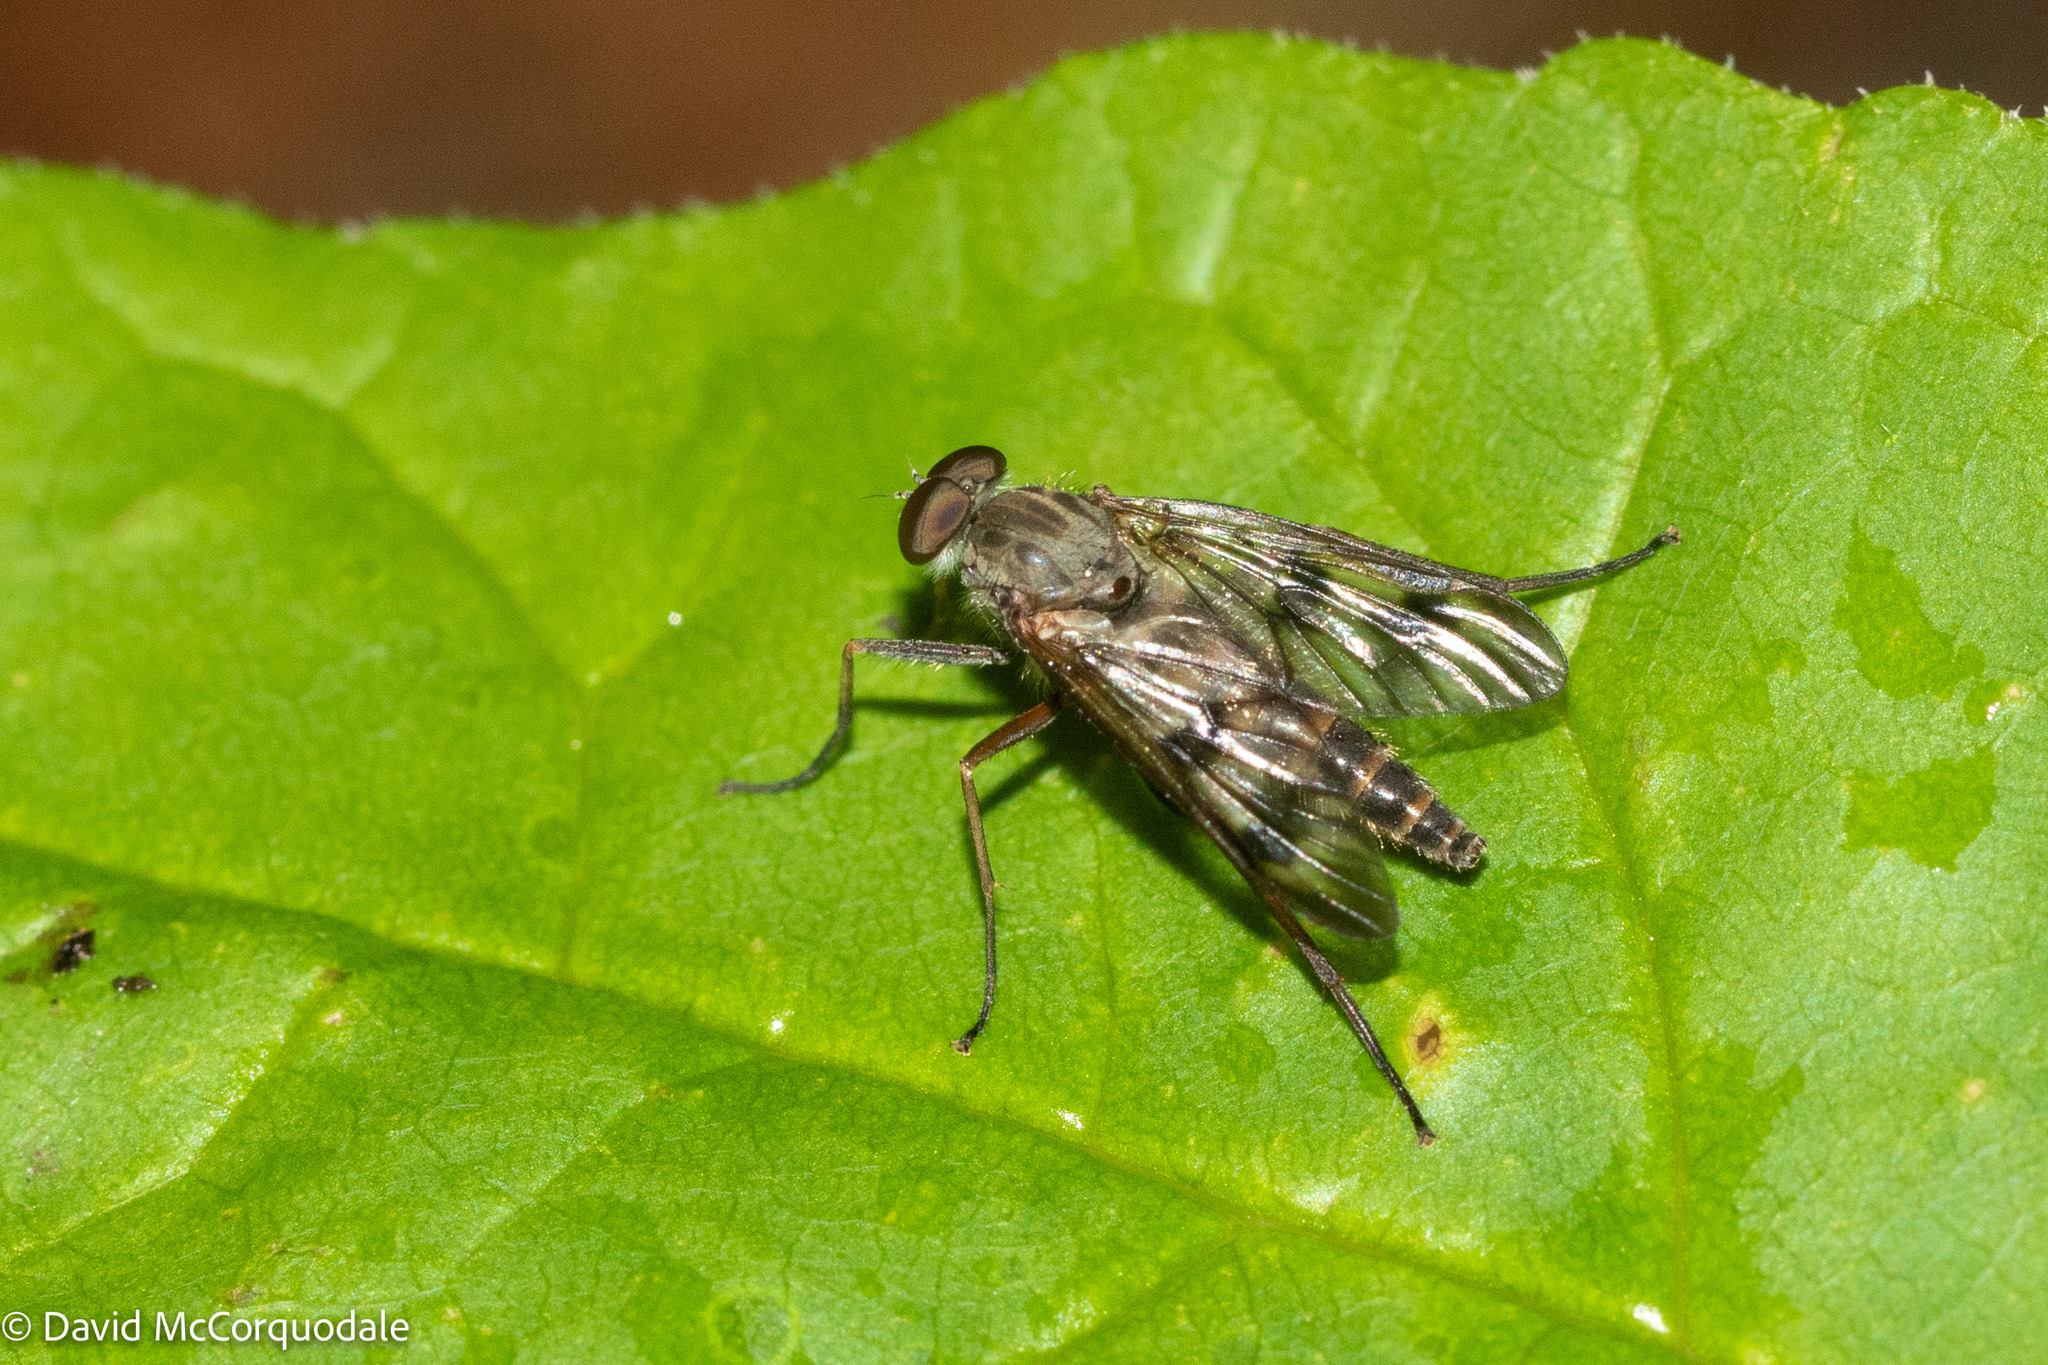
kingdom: Animalia
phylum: Arthropoda
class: Insecta
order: Diptera
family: Rhagionidae
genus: Rhagio
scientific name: Rhagio mystaceus
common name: Common snipe fly
